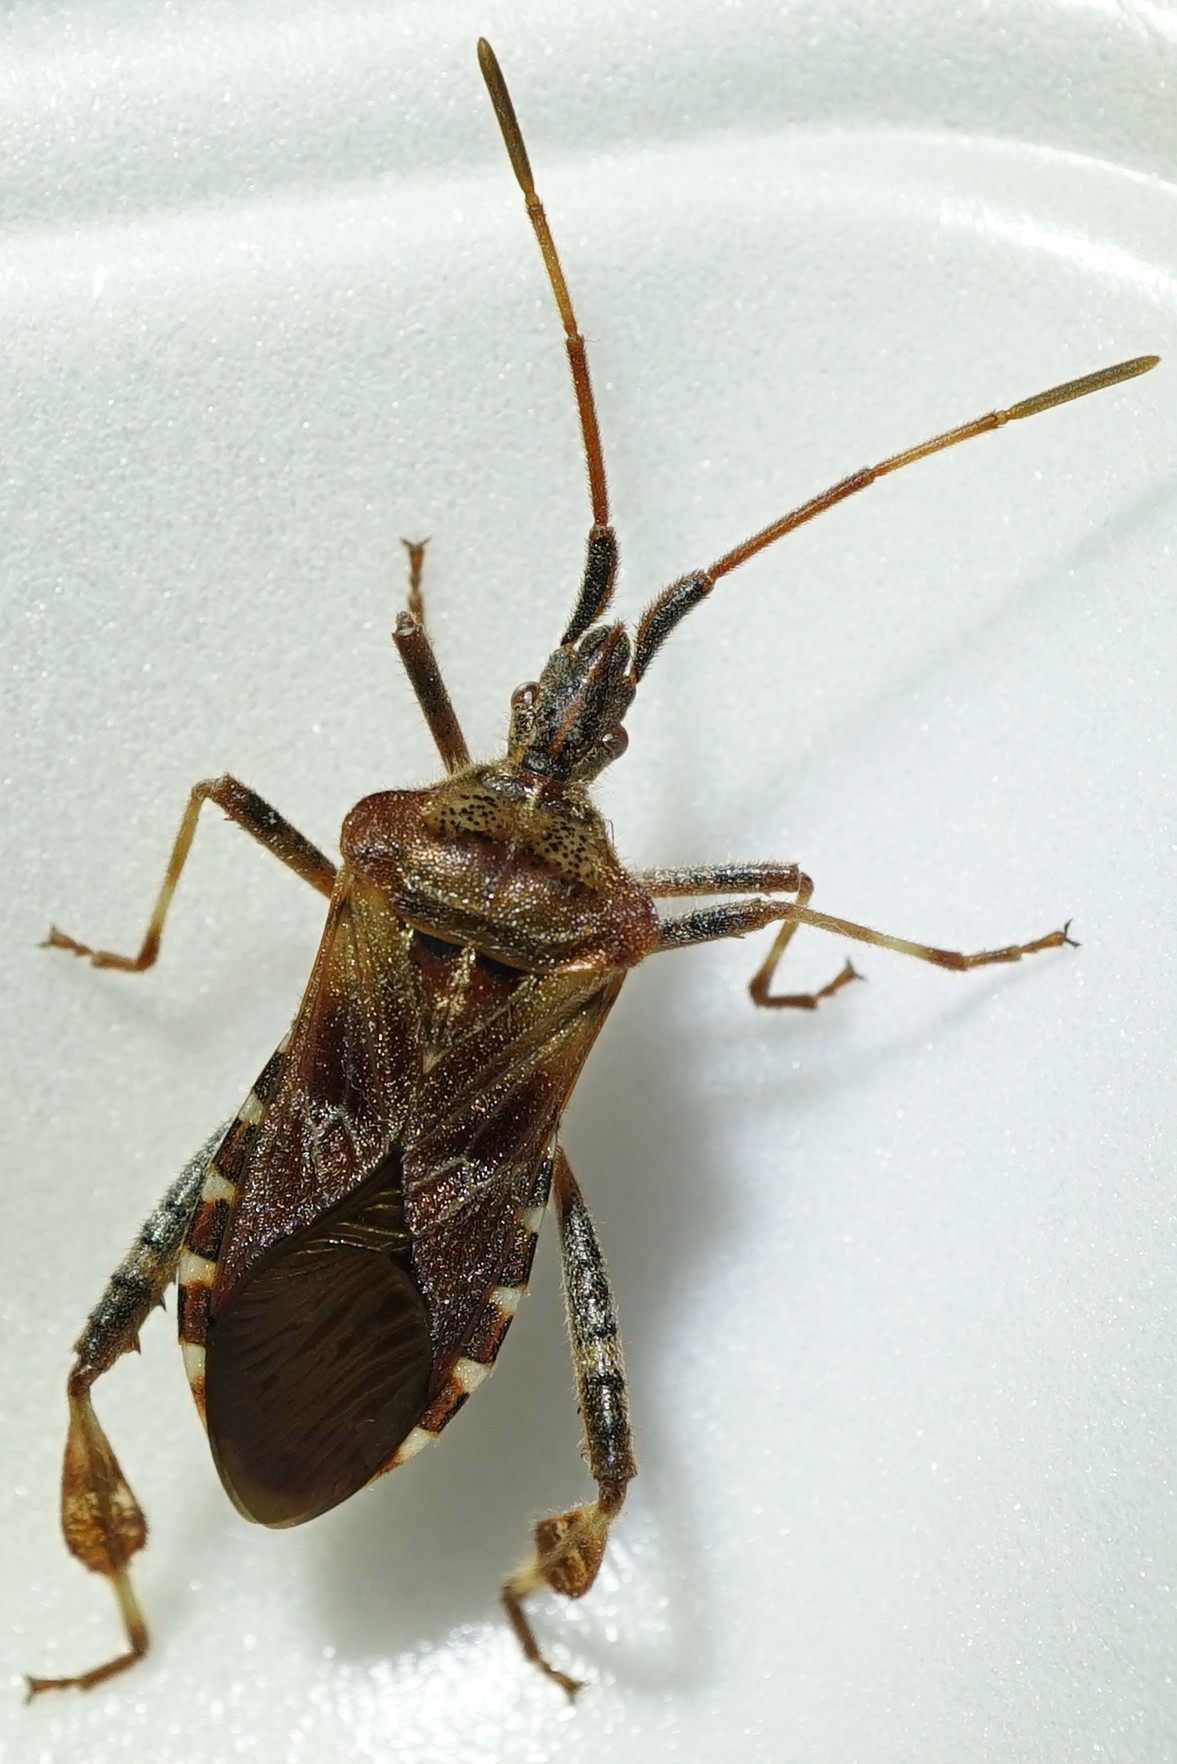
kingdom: Animalia
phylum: Arthropoda
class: Insecta
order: Hemiptera
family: Coreidae
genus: Leptoglossus
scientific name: Leptoglossus occidentalis
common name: Western conifer-seed bug
